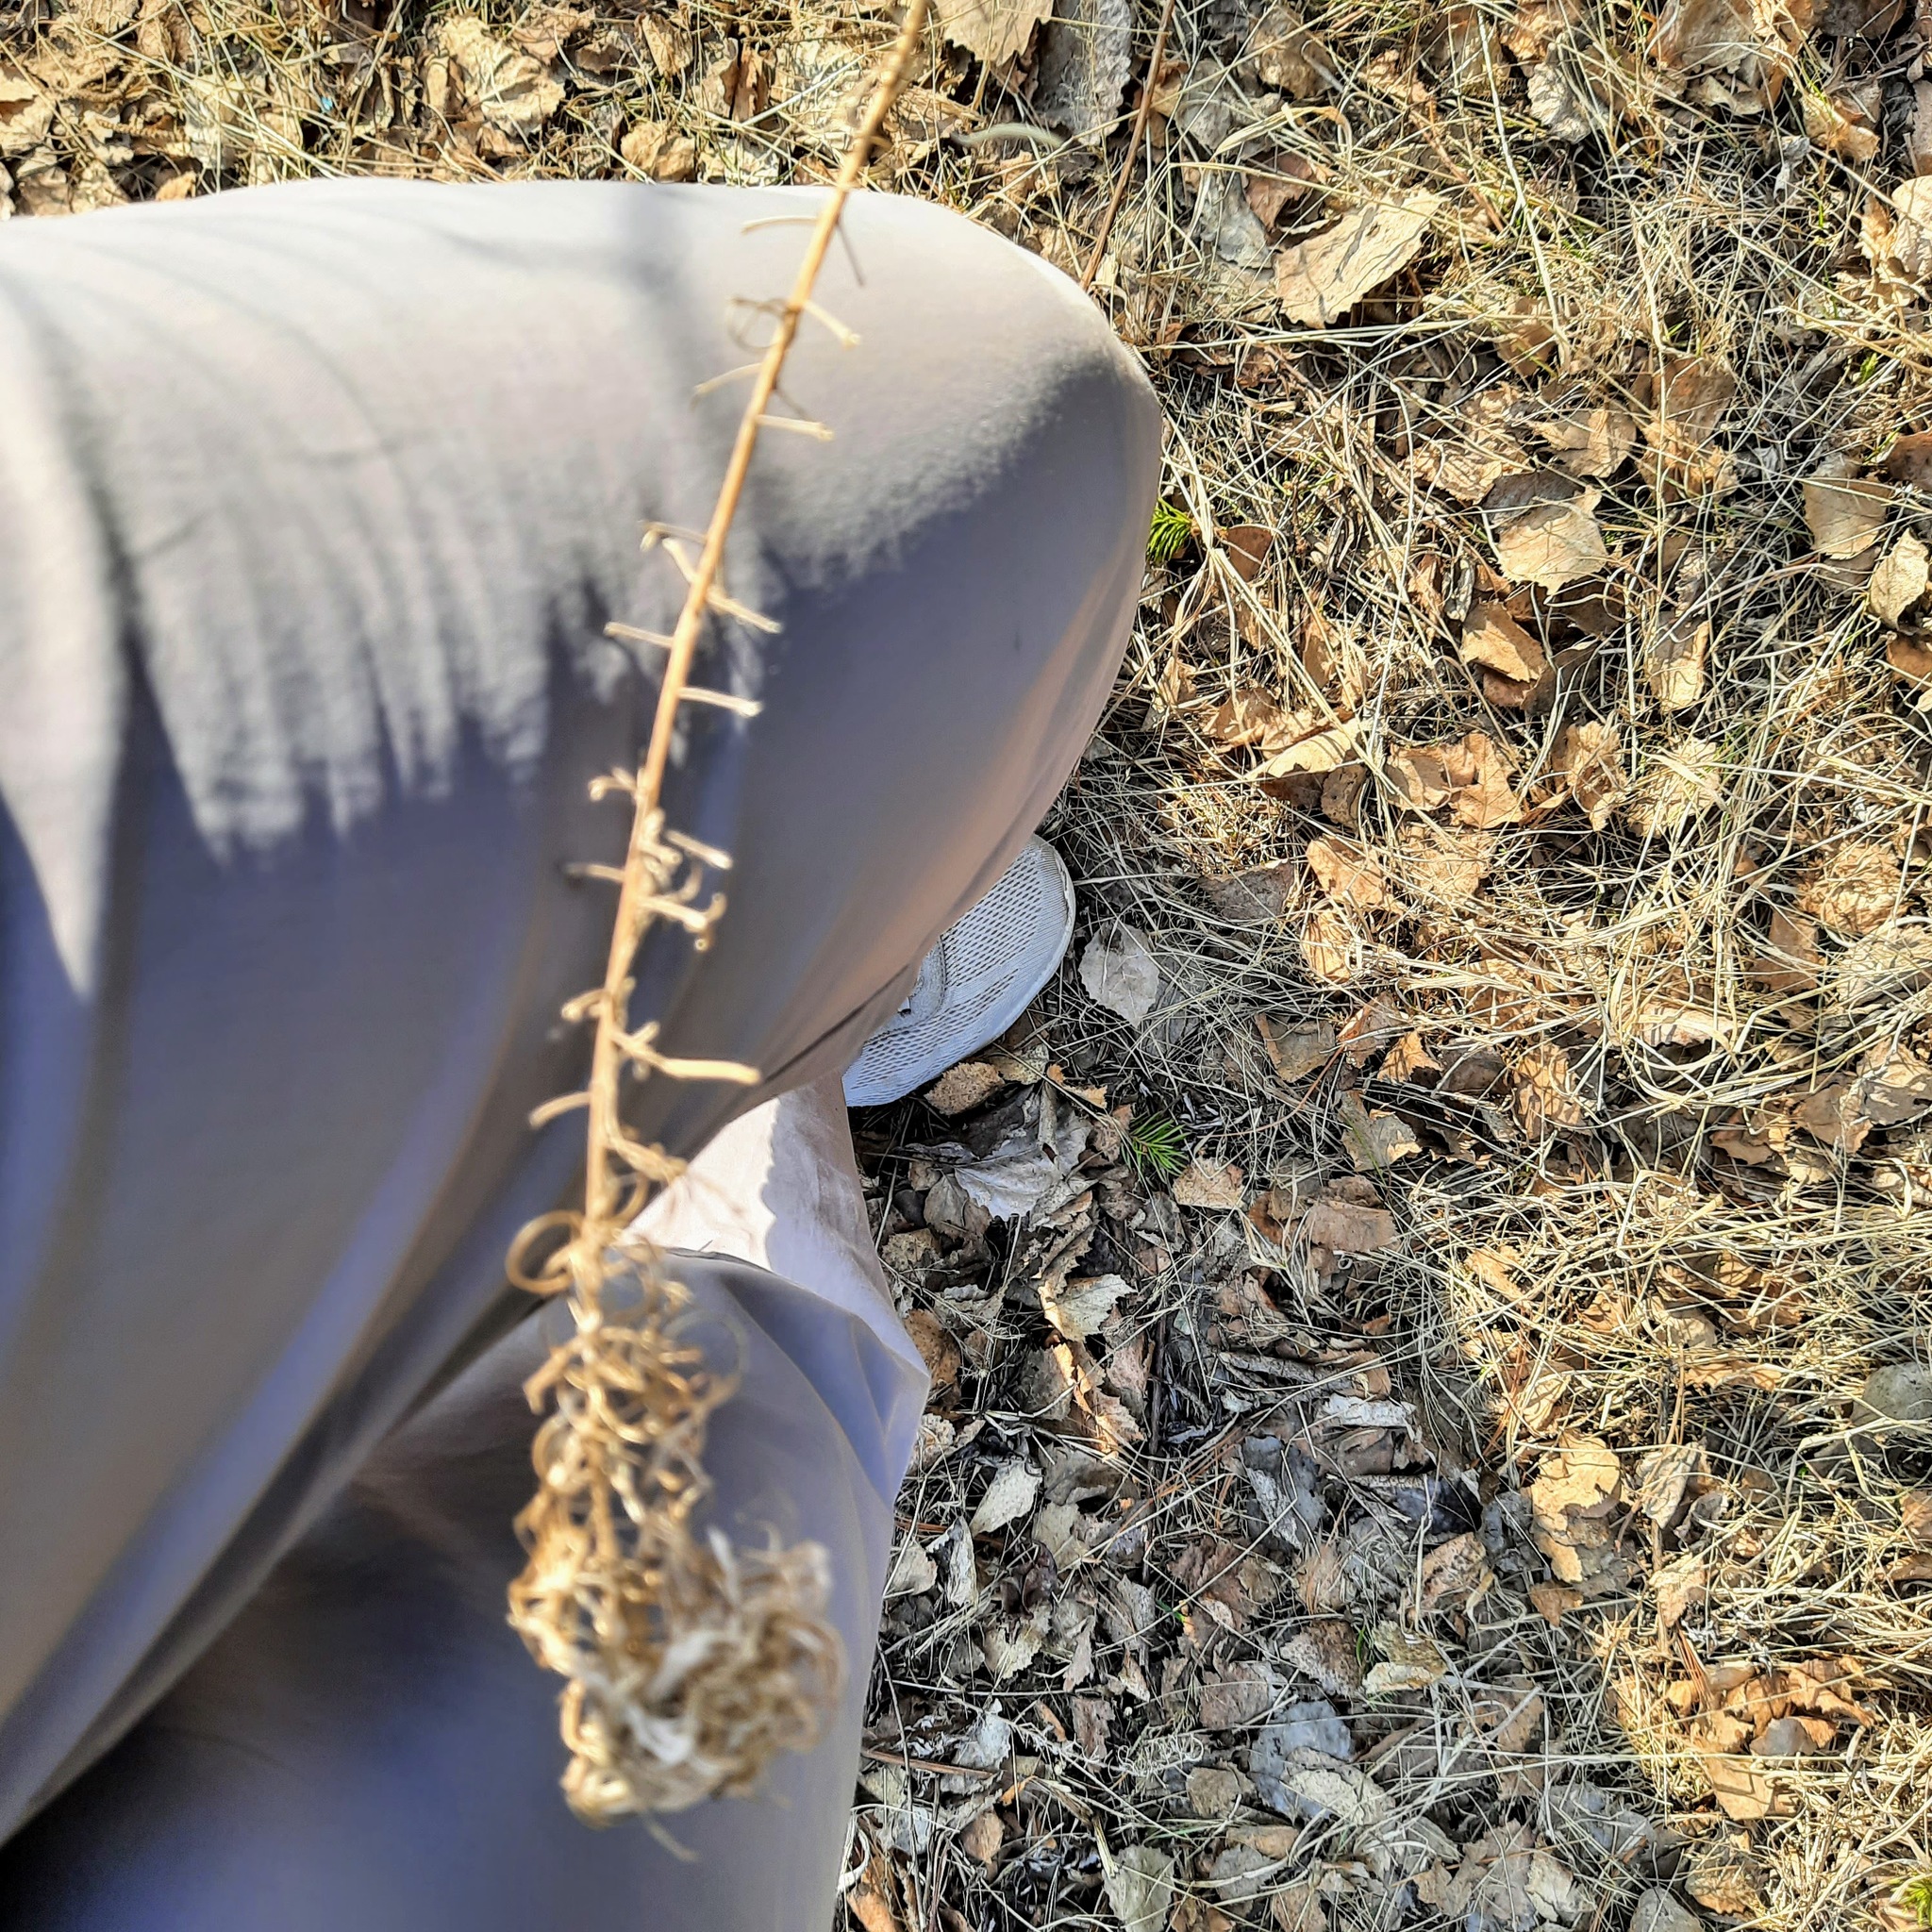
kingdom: Plantae
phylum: Tracheophyta
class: Magnoliopsida
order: Myrtales
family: Onagraceae
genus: Chamaenerion
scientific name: Chamaenerion angustifolium
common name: Fireweed
